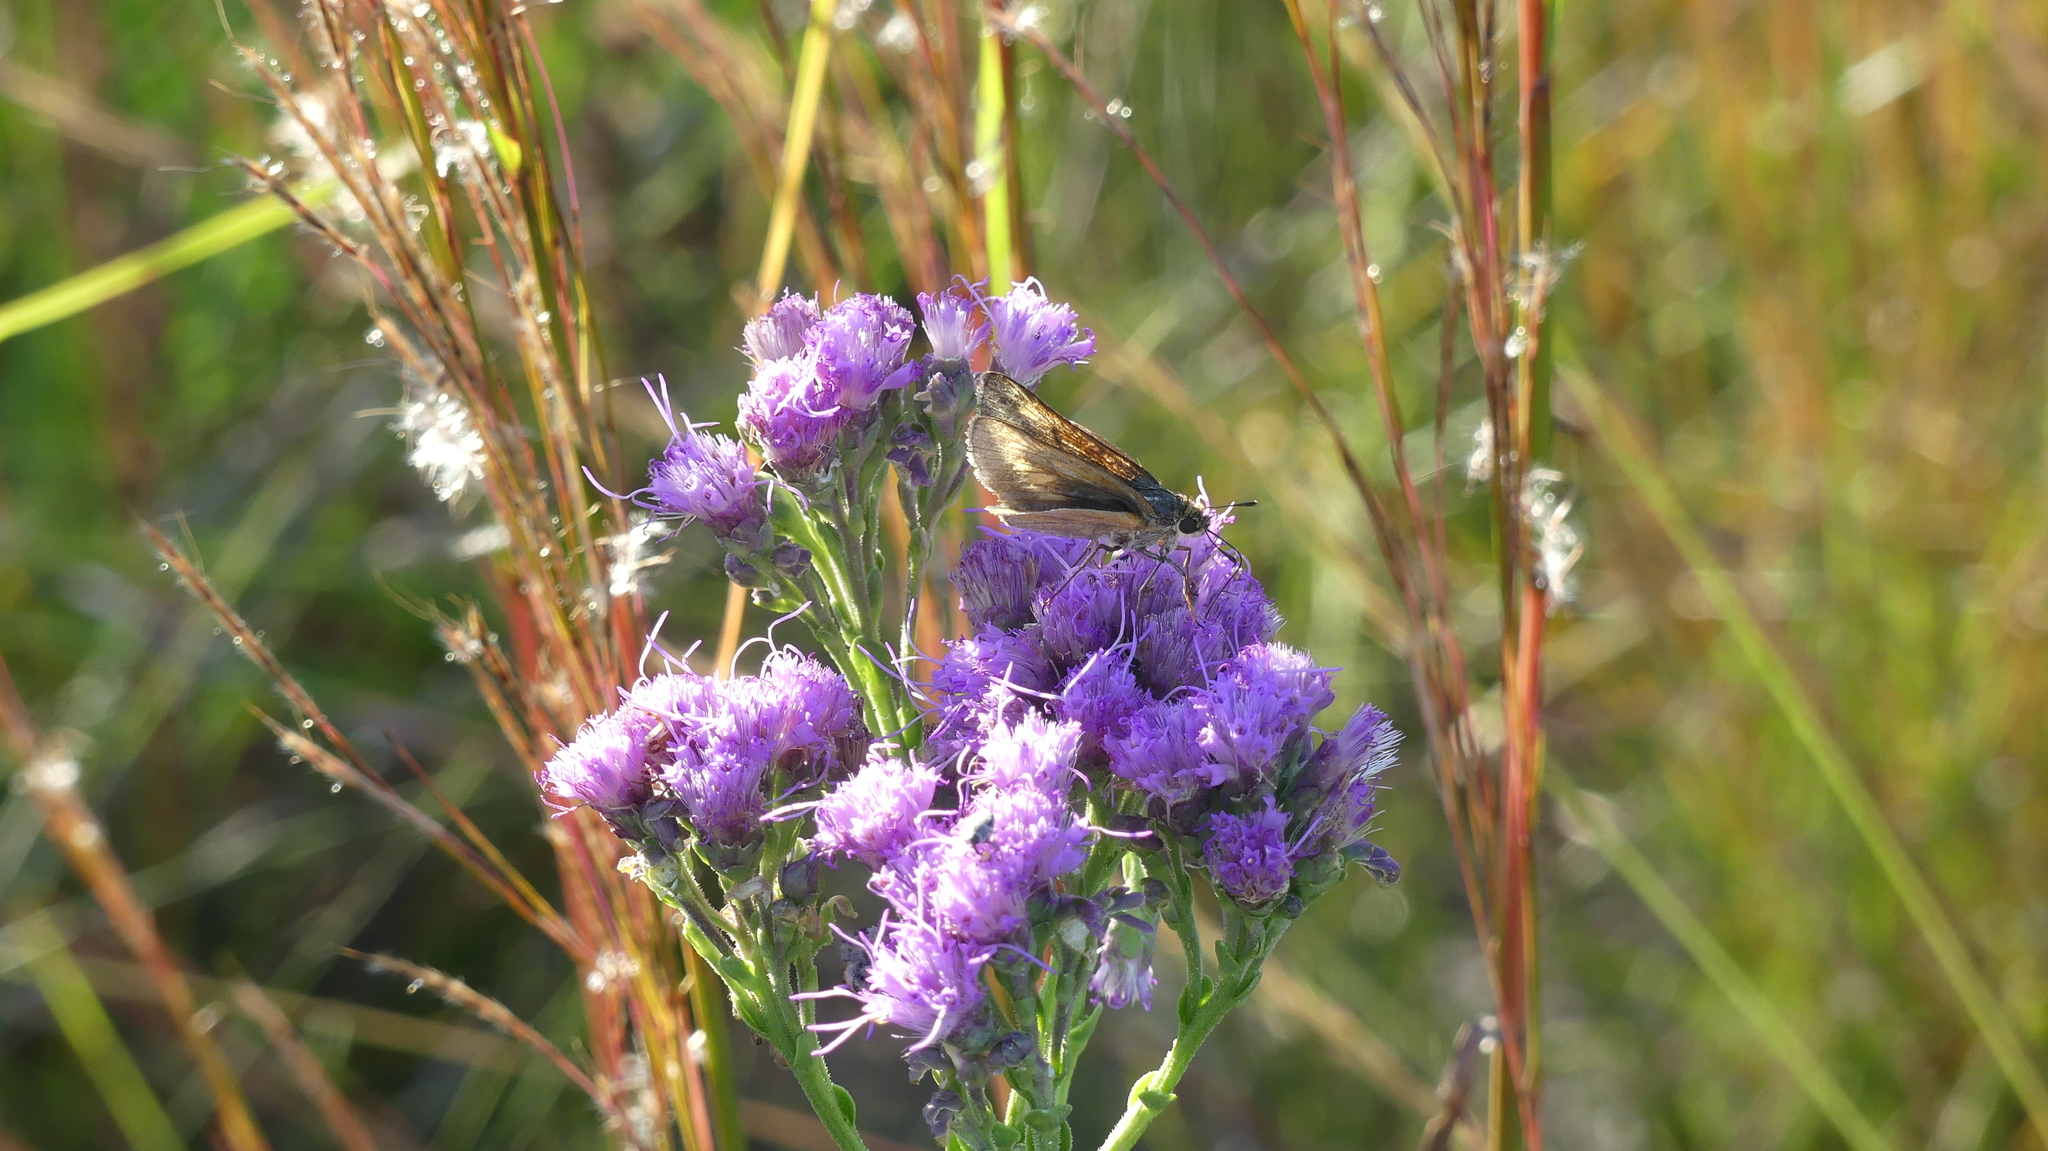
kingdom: Animalia
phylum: Arthropoda
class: Insecta
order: Lepidoptera
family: Hesperiidae
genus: Problema
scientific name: Problema byssus
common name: Byssus skipper
